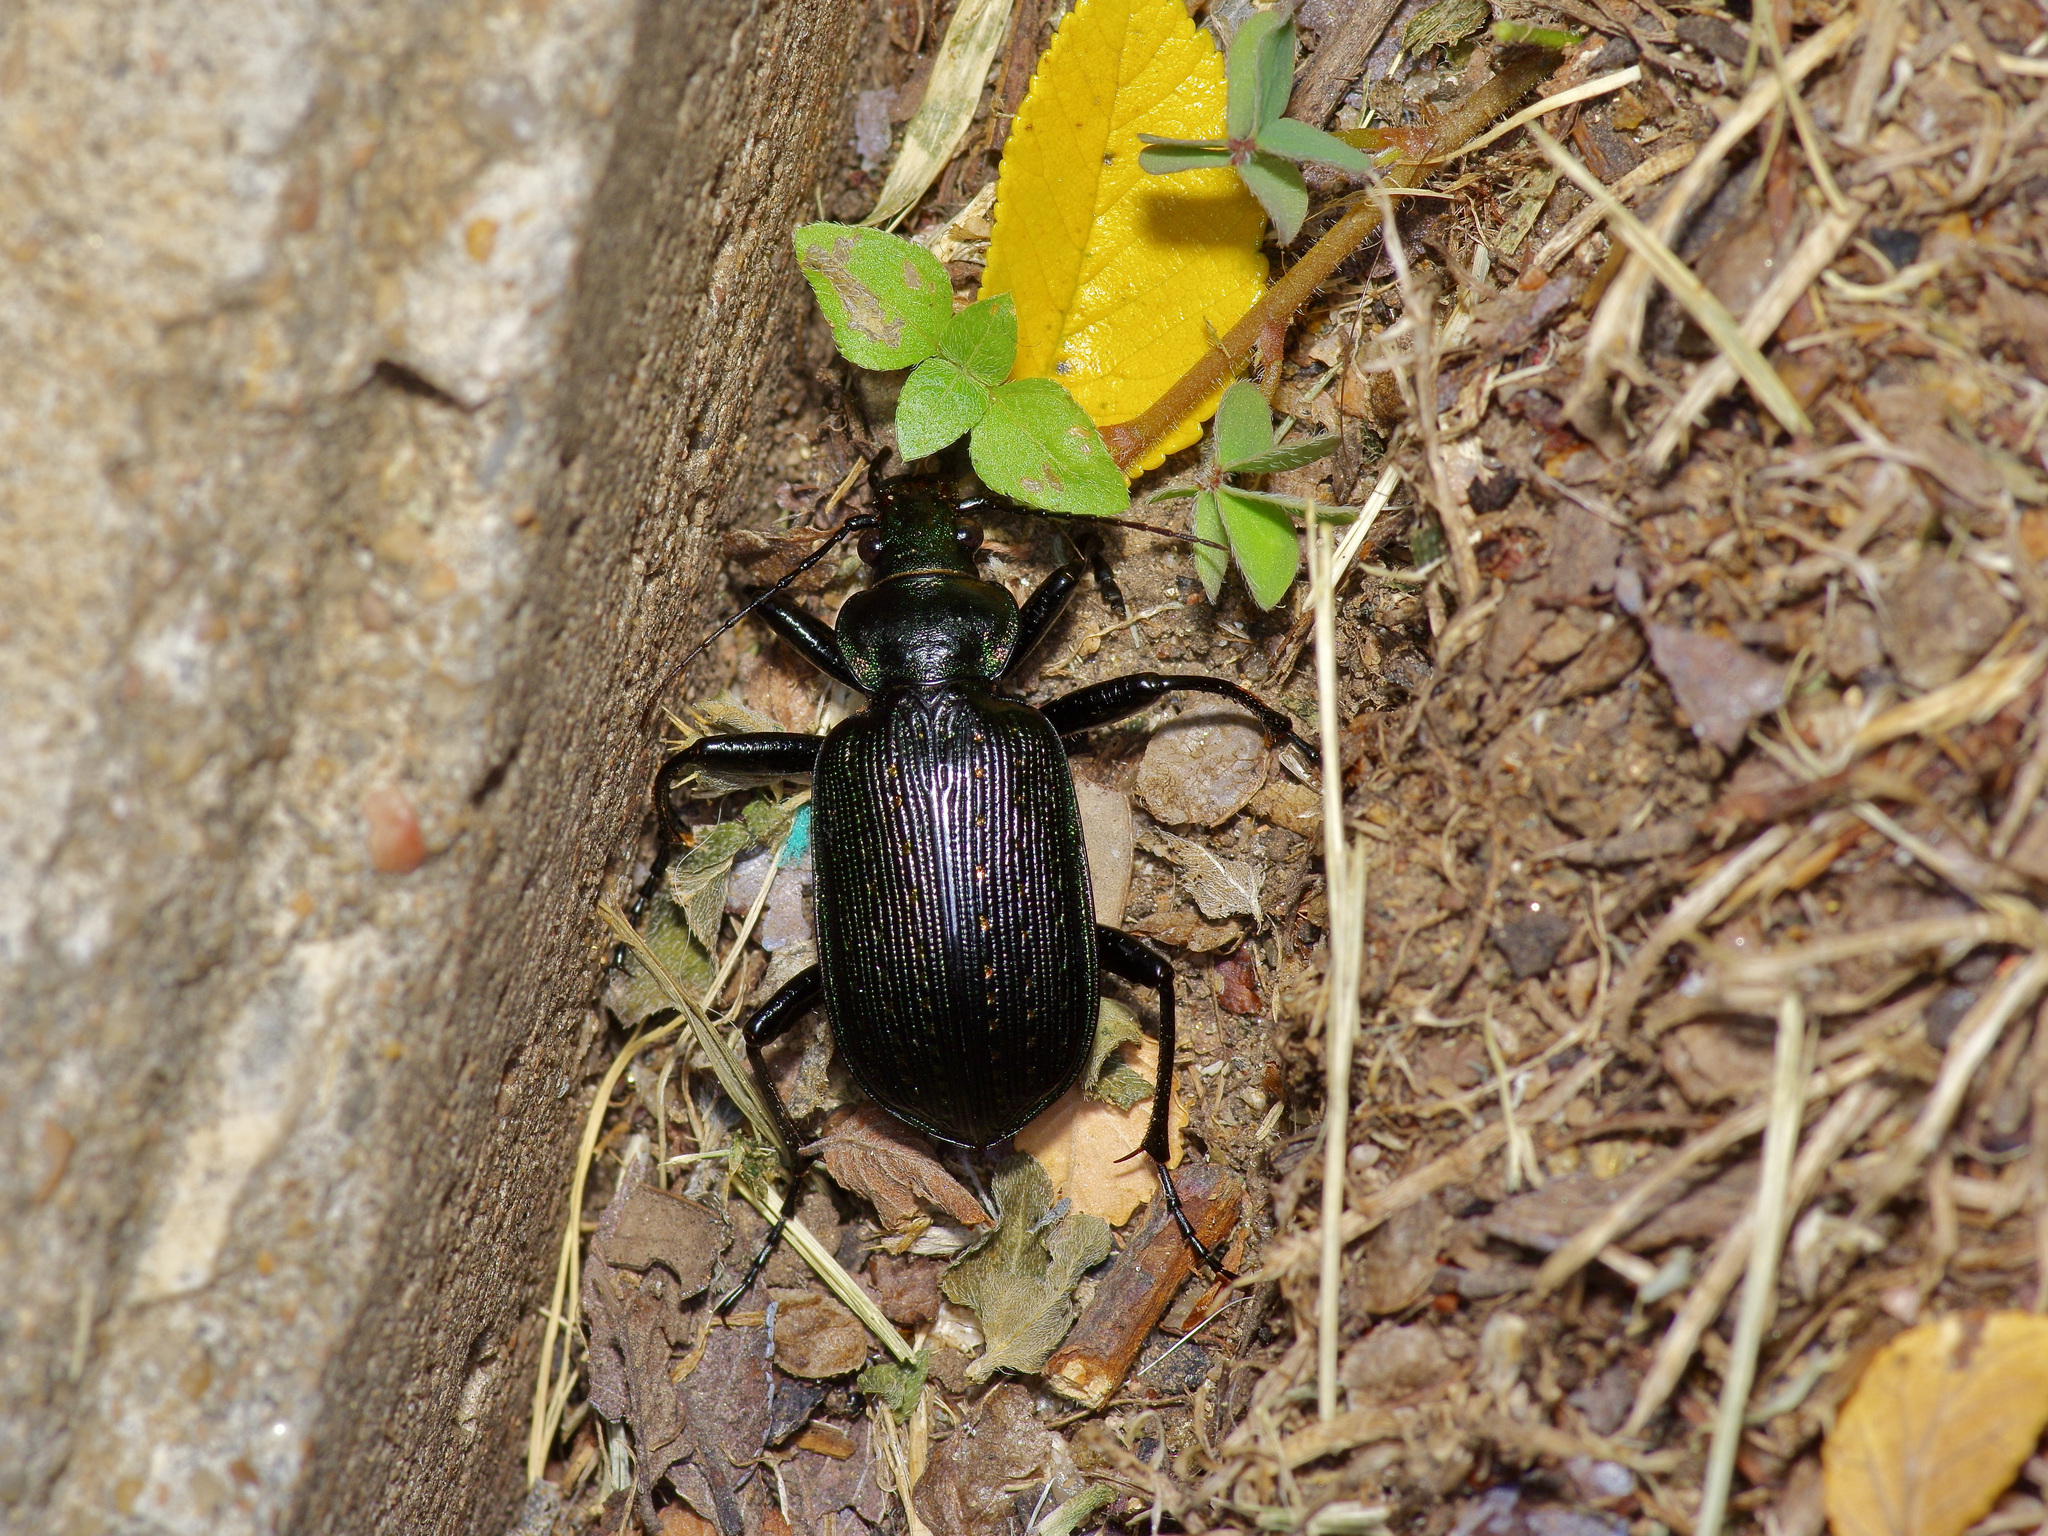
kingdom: Animalia
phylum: Arthropoda
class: Insecta
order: Coleoptera
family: Carabidae
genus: Calosoma
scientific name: Calosoma sayi
